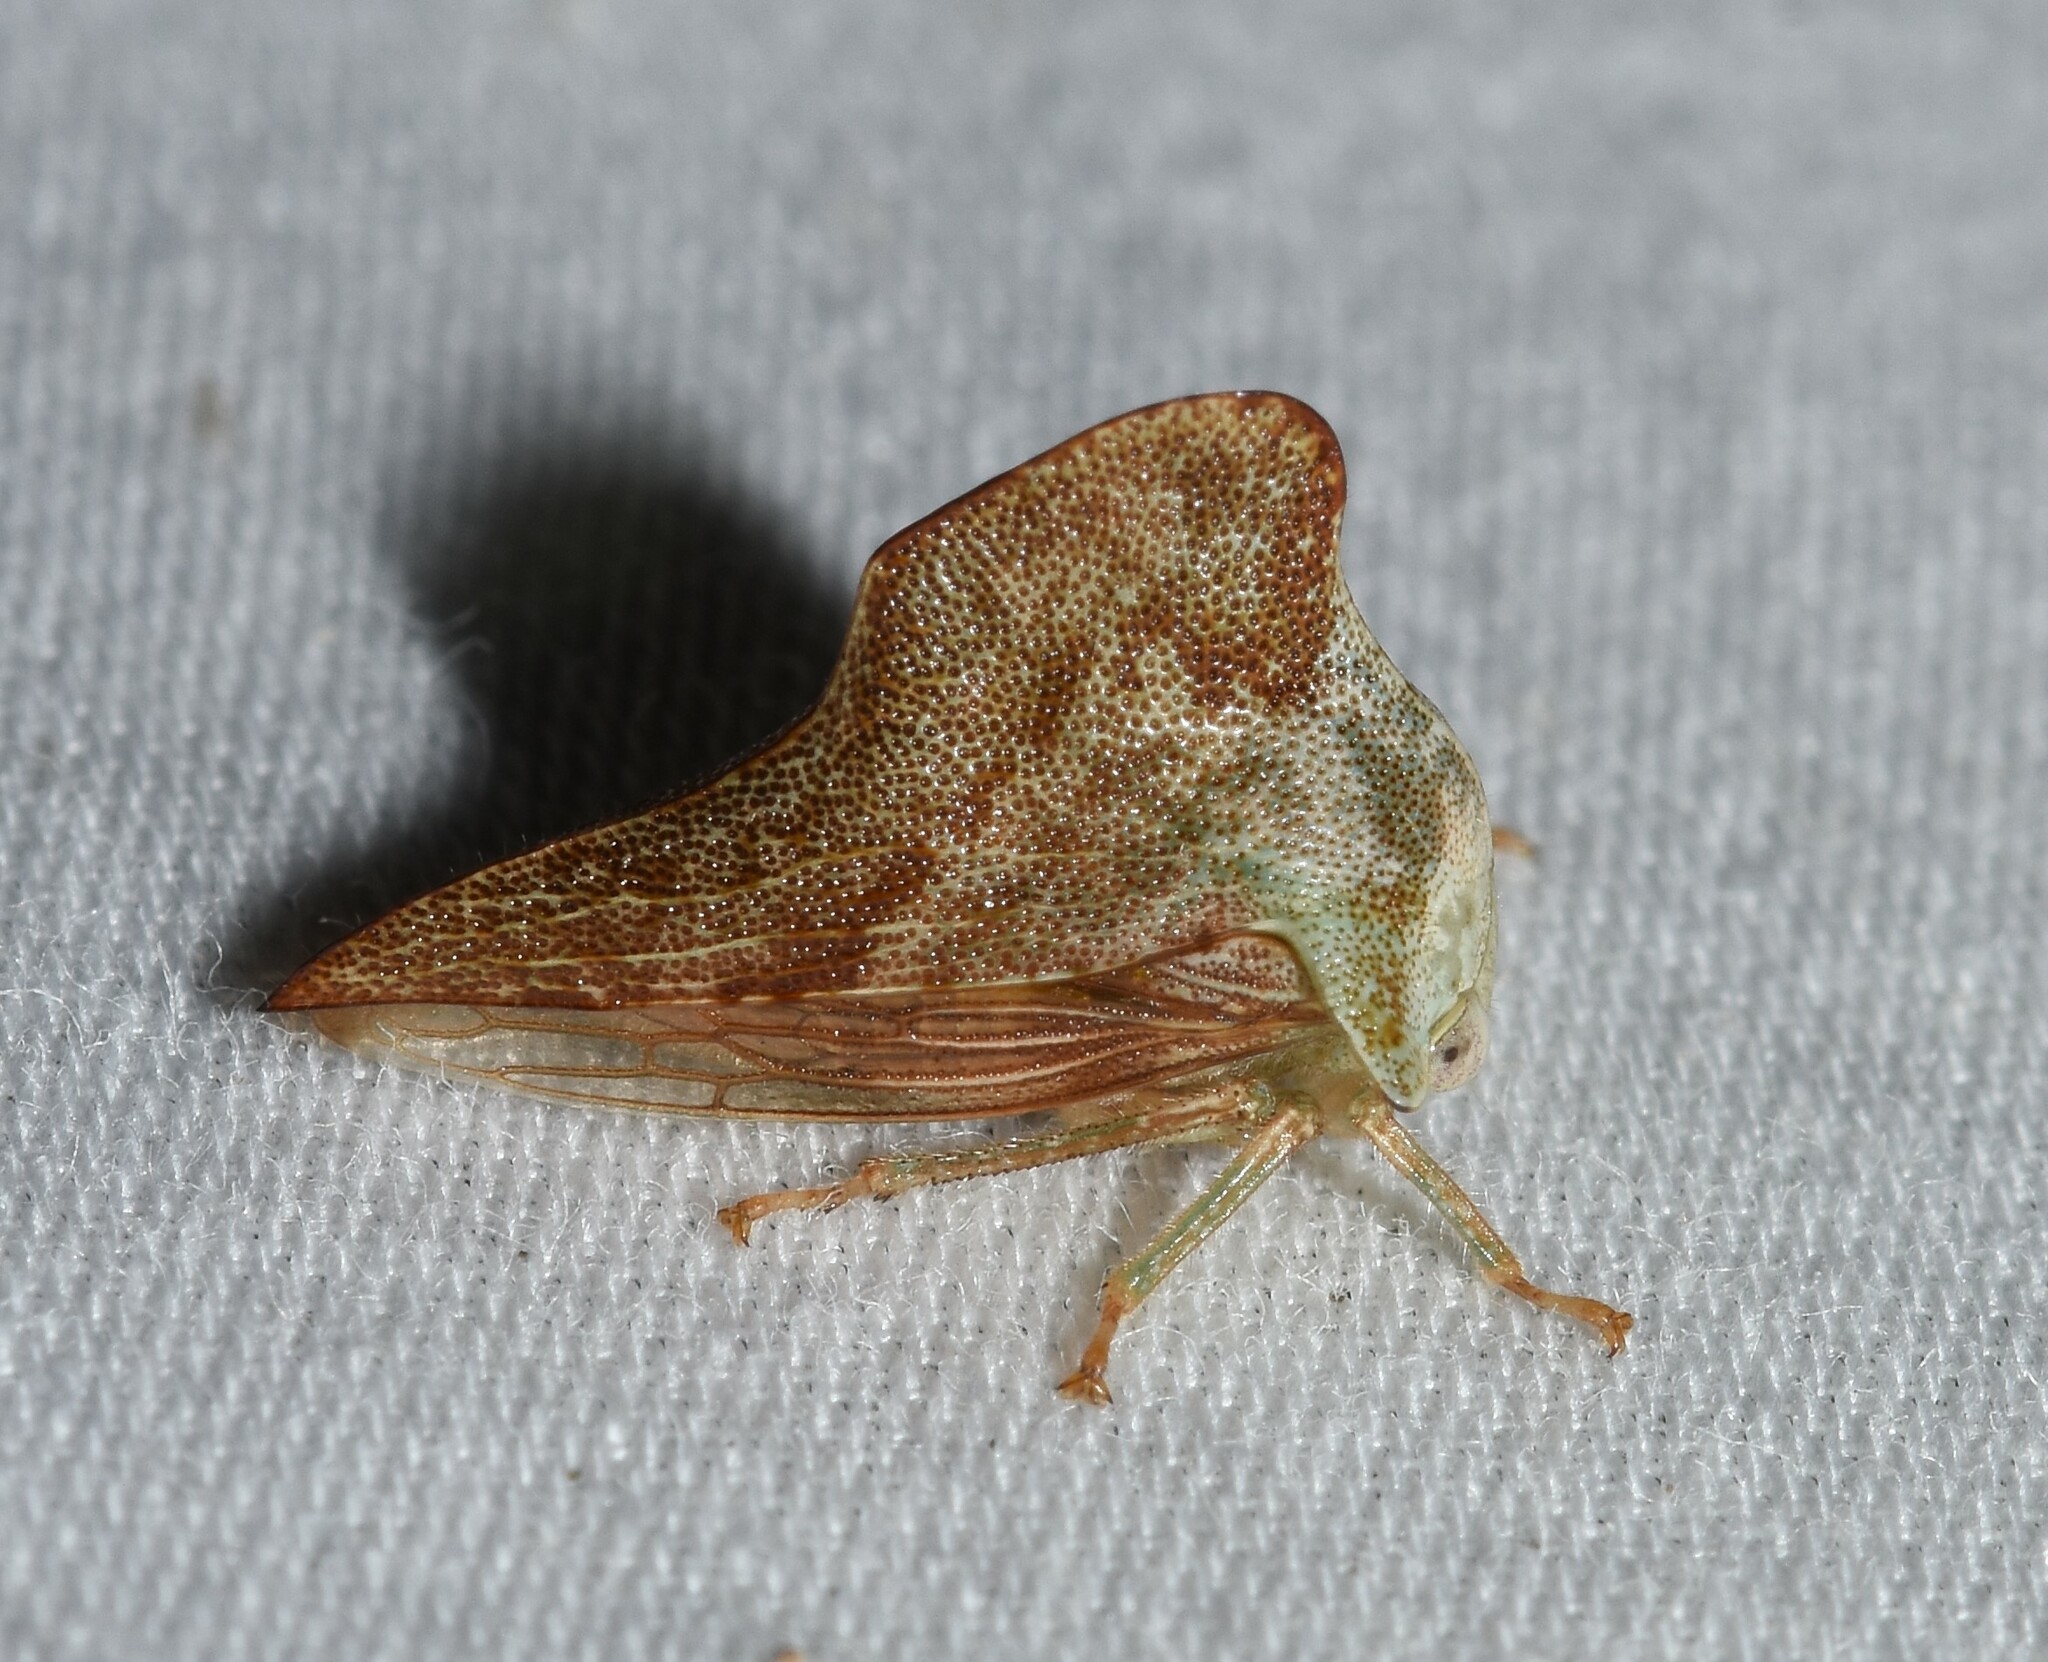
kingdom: Animalia
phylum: Arthropoda
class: Insecta
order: Hemiptera
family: Membracidae
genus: Telamona
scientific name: Telamona collina
